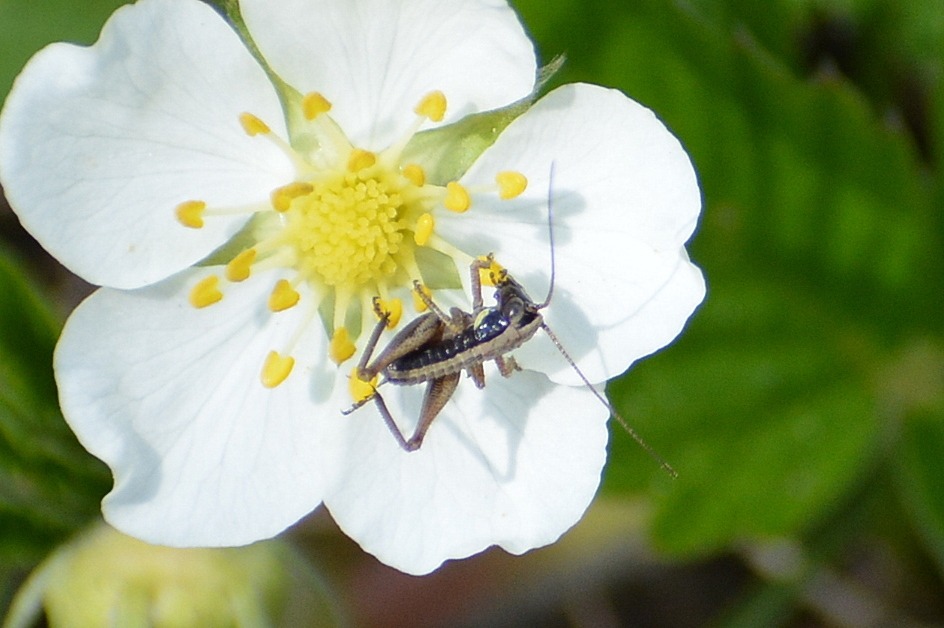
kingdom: Animalia
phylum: Arthropoda
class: Insecta
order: Orthoptera
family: Tettigoniidae
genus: Platycleis
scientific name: Platycleis albopunctata
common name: Grey bush-cricket
